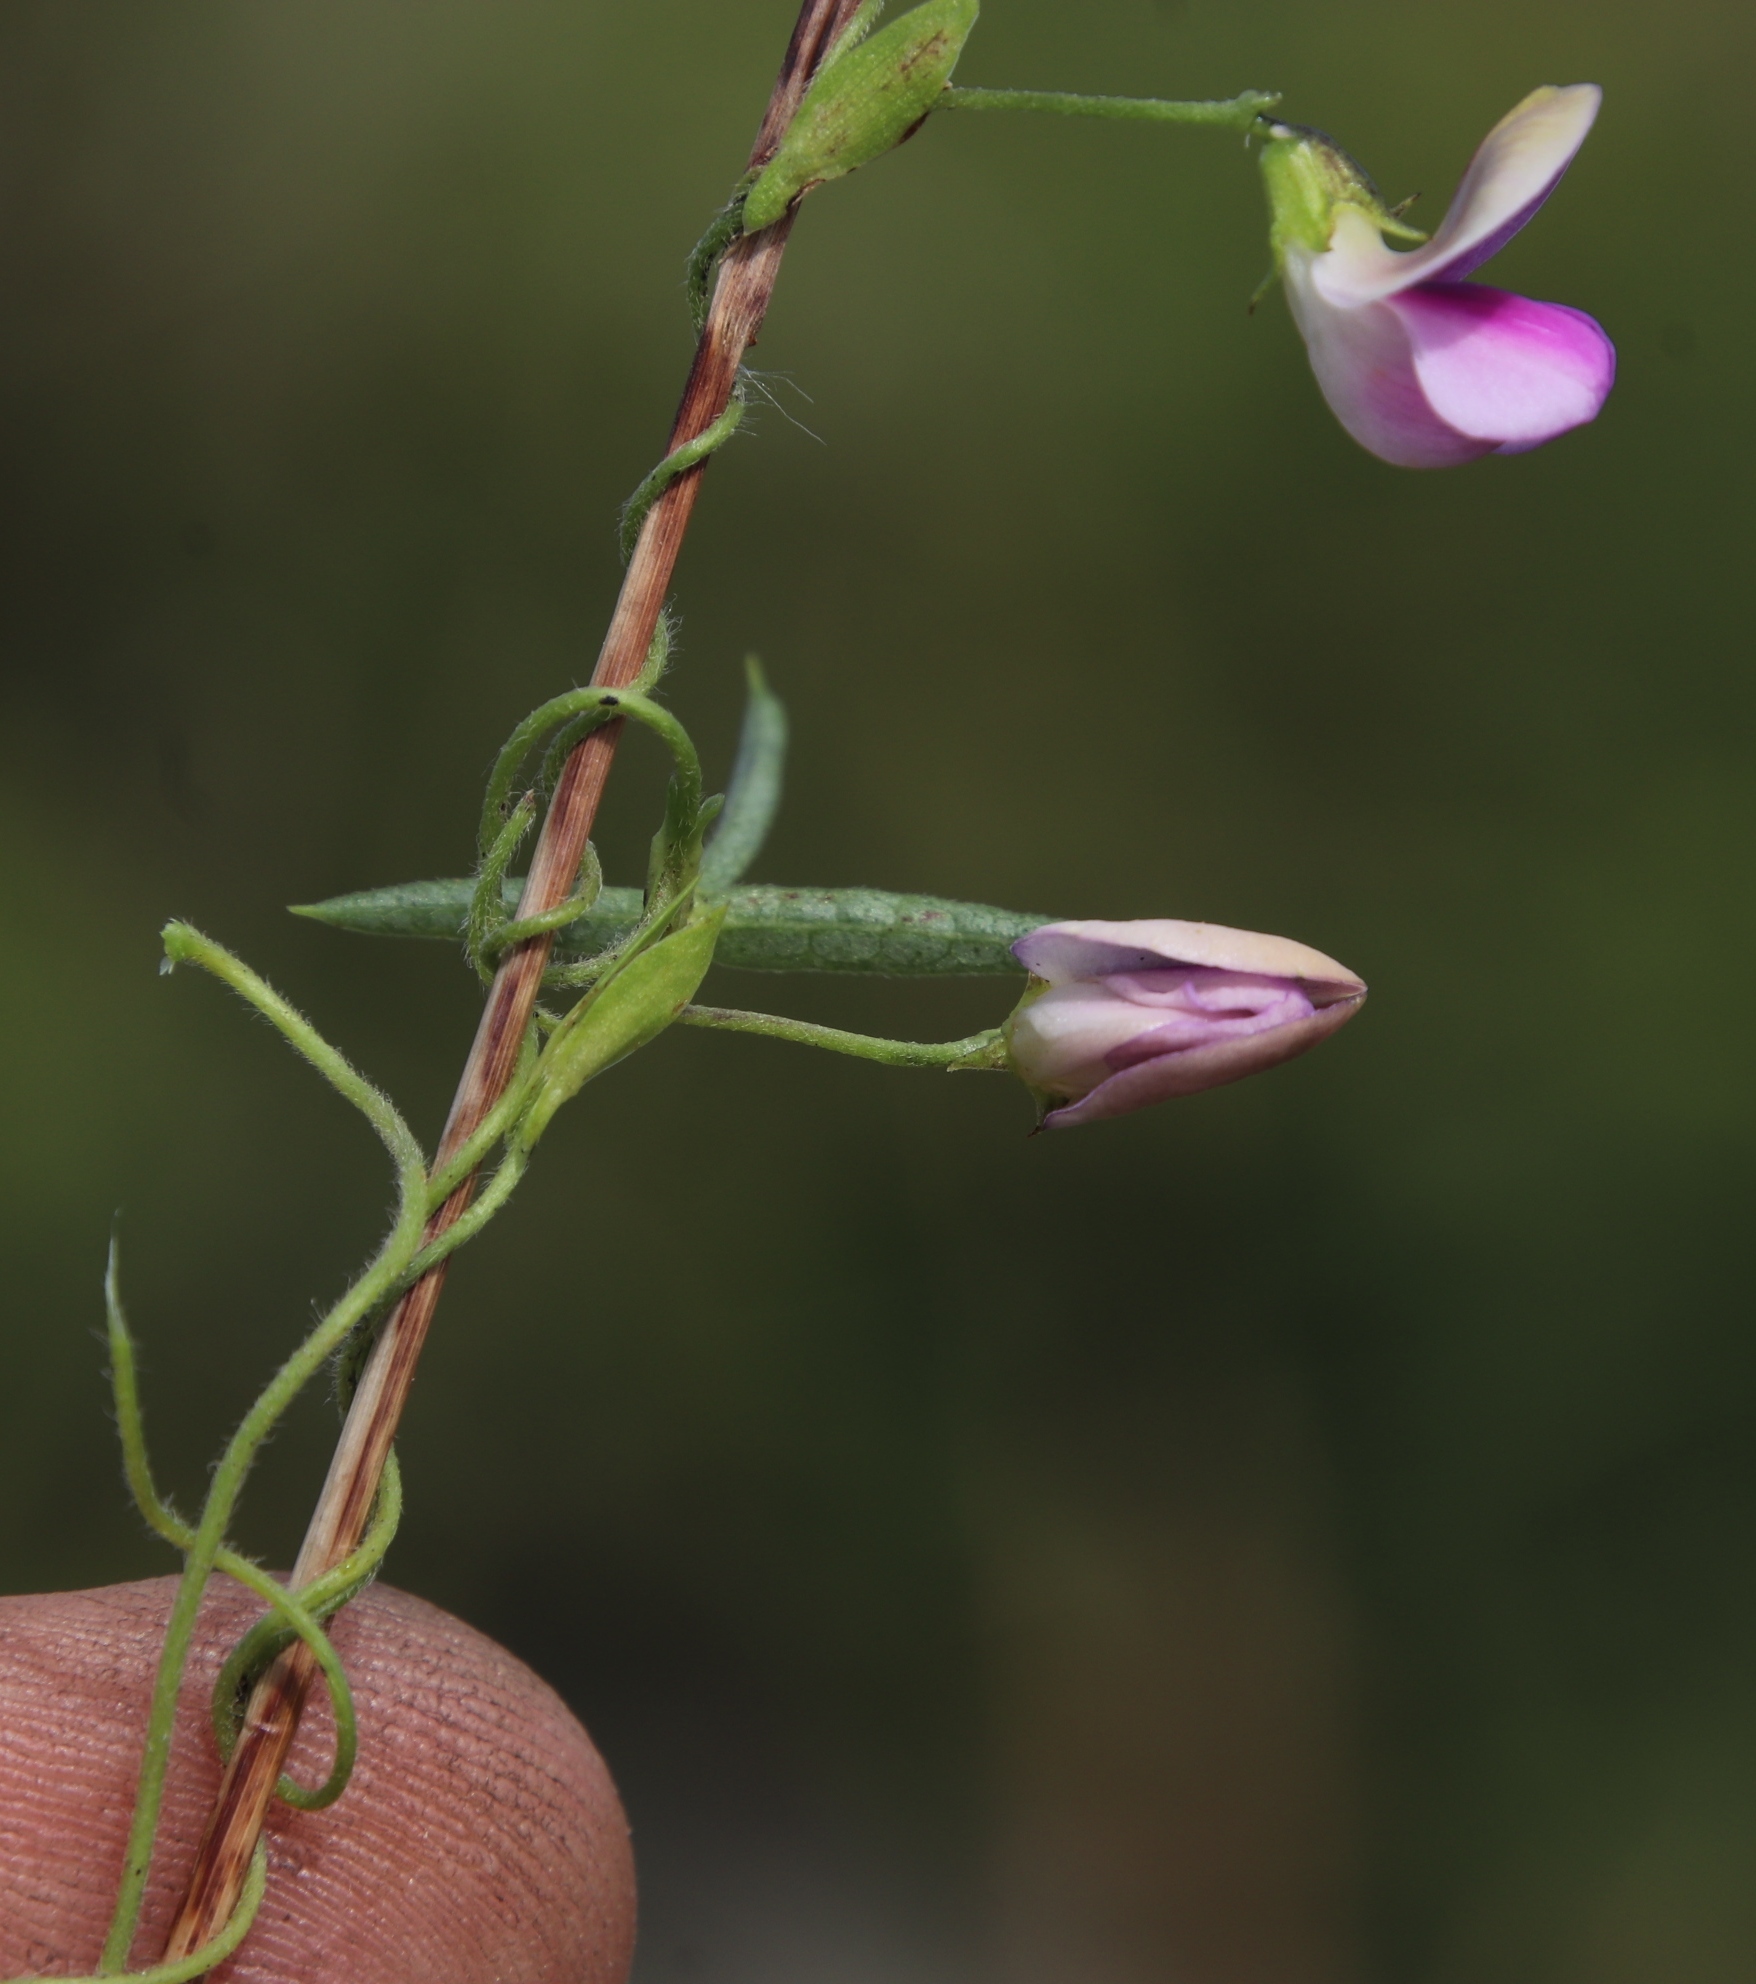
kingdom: Plantae
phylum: Tracheophyta
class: Magnoliopsida
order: Fabales
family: Fabaceae
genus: Vigna
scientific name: Vigna schlechteri
